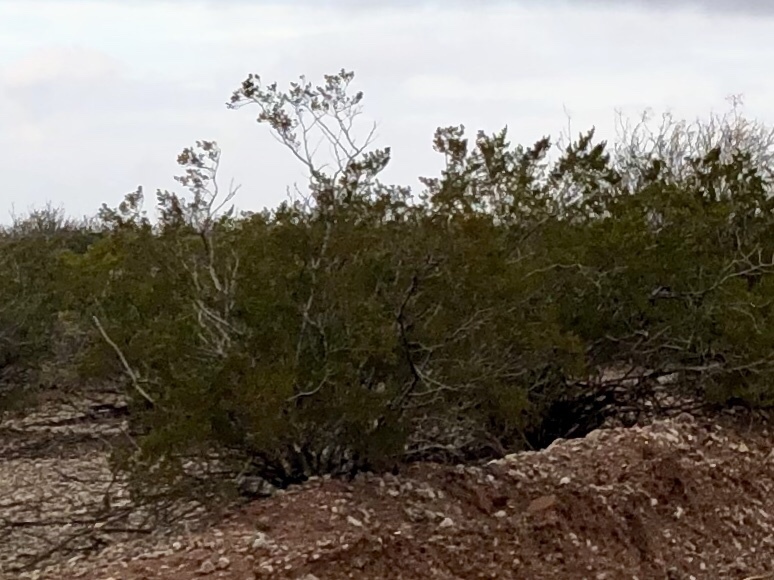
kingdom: Plantae
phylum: Tracheophyta
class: Magnoliopsida
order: Zygophyllales
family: Zygophyllaceae
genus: Larrea
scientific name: Larrea tridentata
